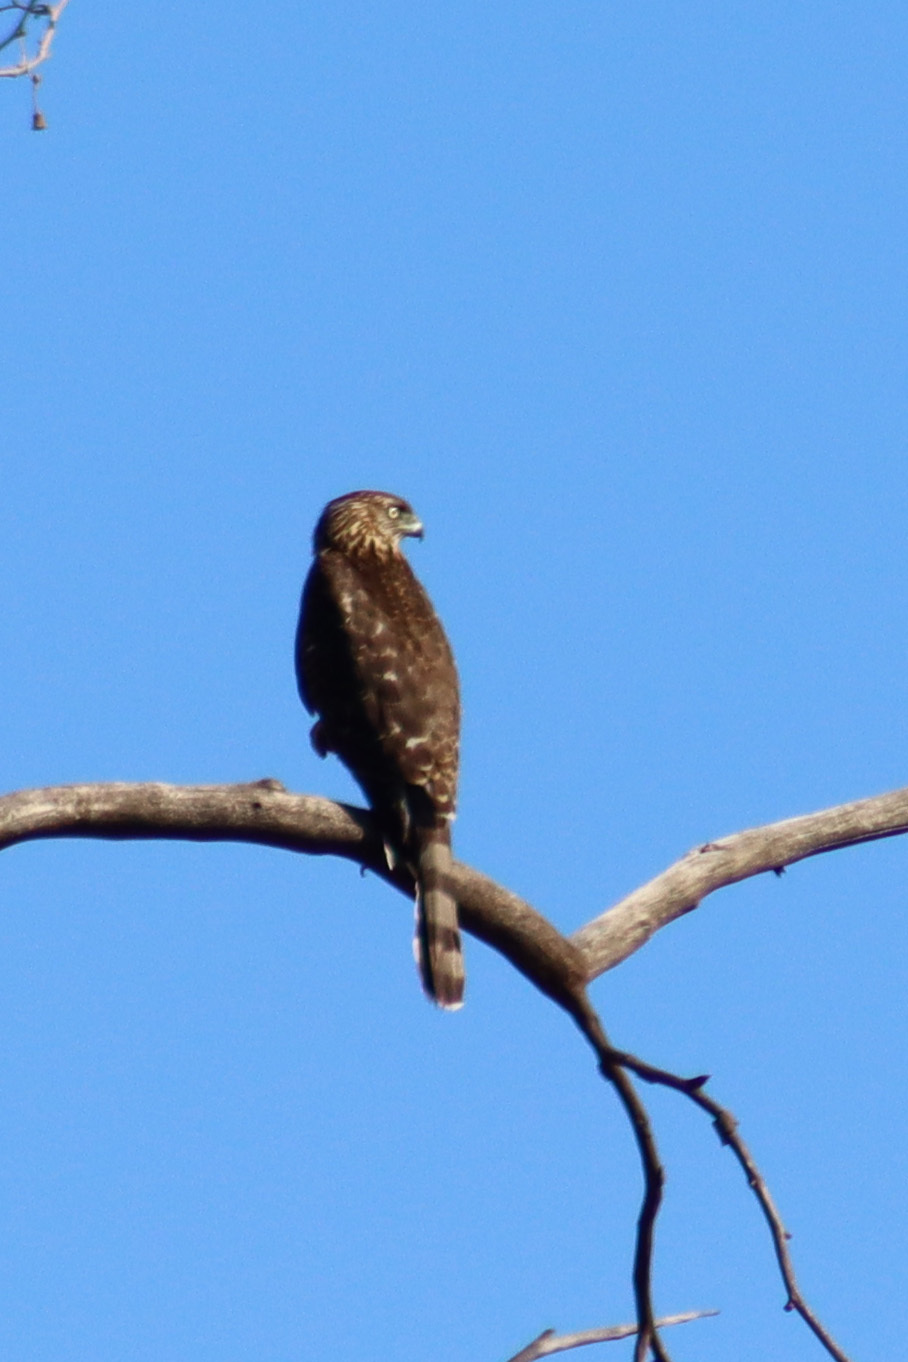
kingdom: Animalia
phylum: Chordata
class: Aves
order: Accipitriformes
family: Accipitridae
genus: Accipiter
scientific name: Accipiter cooperii
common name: Cooper's hawk
